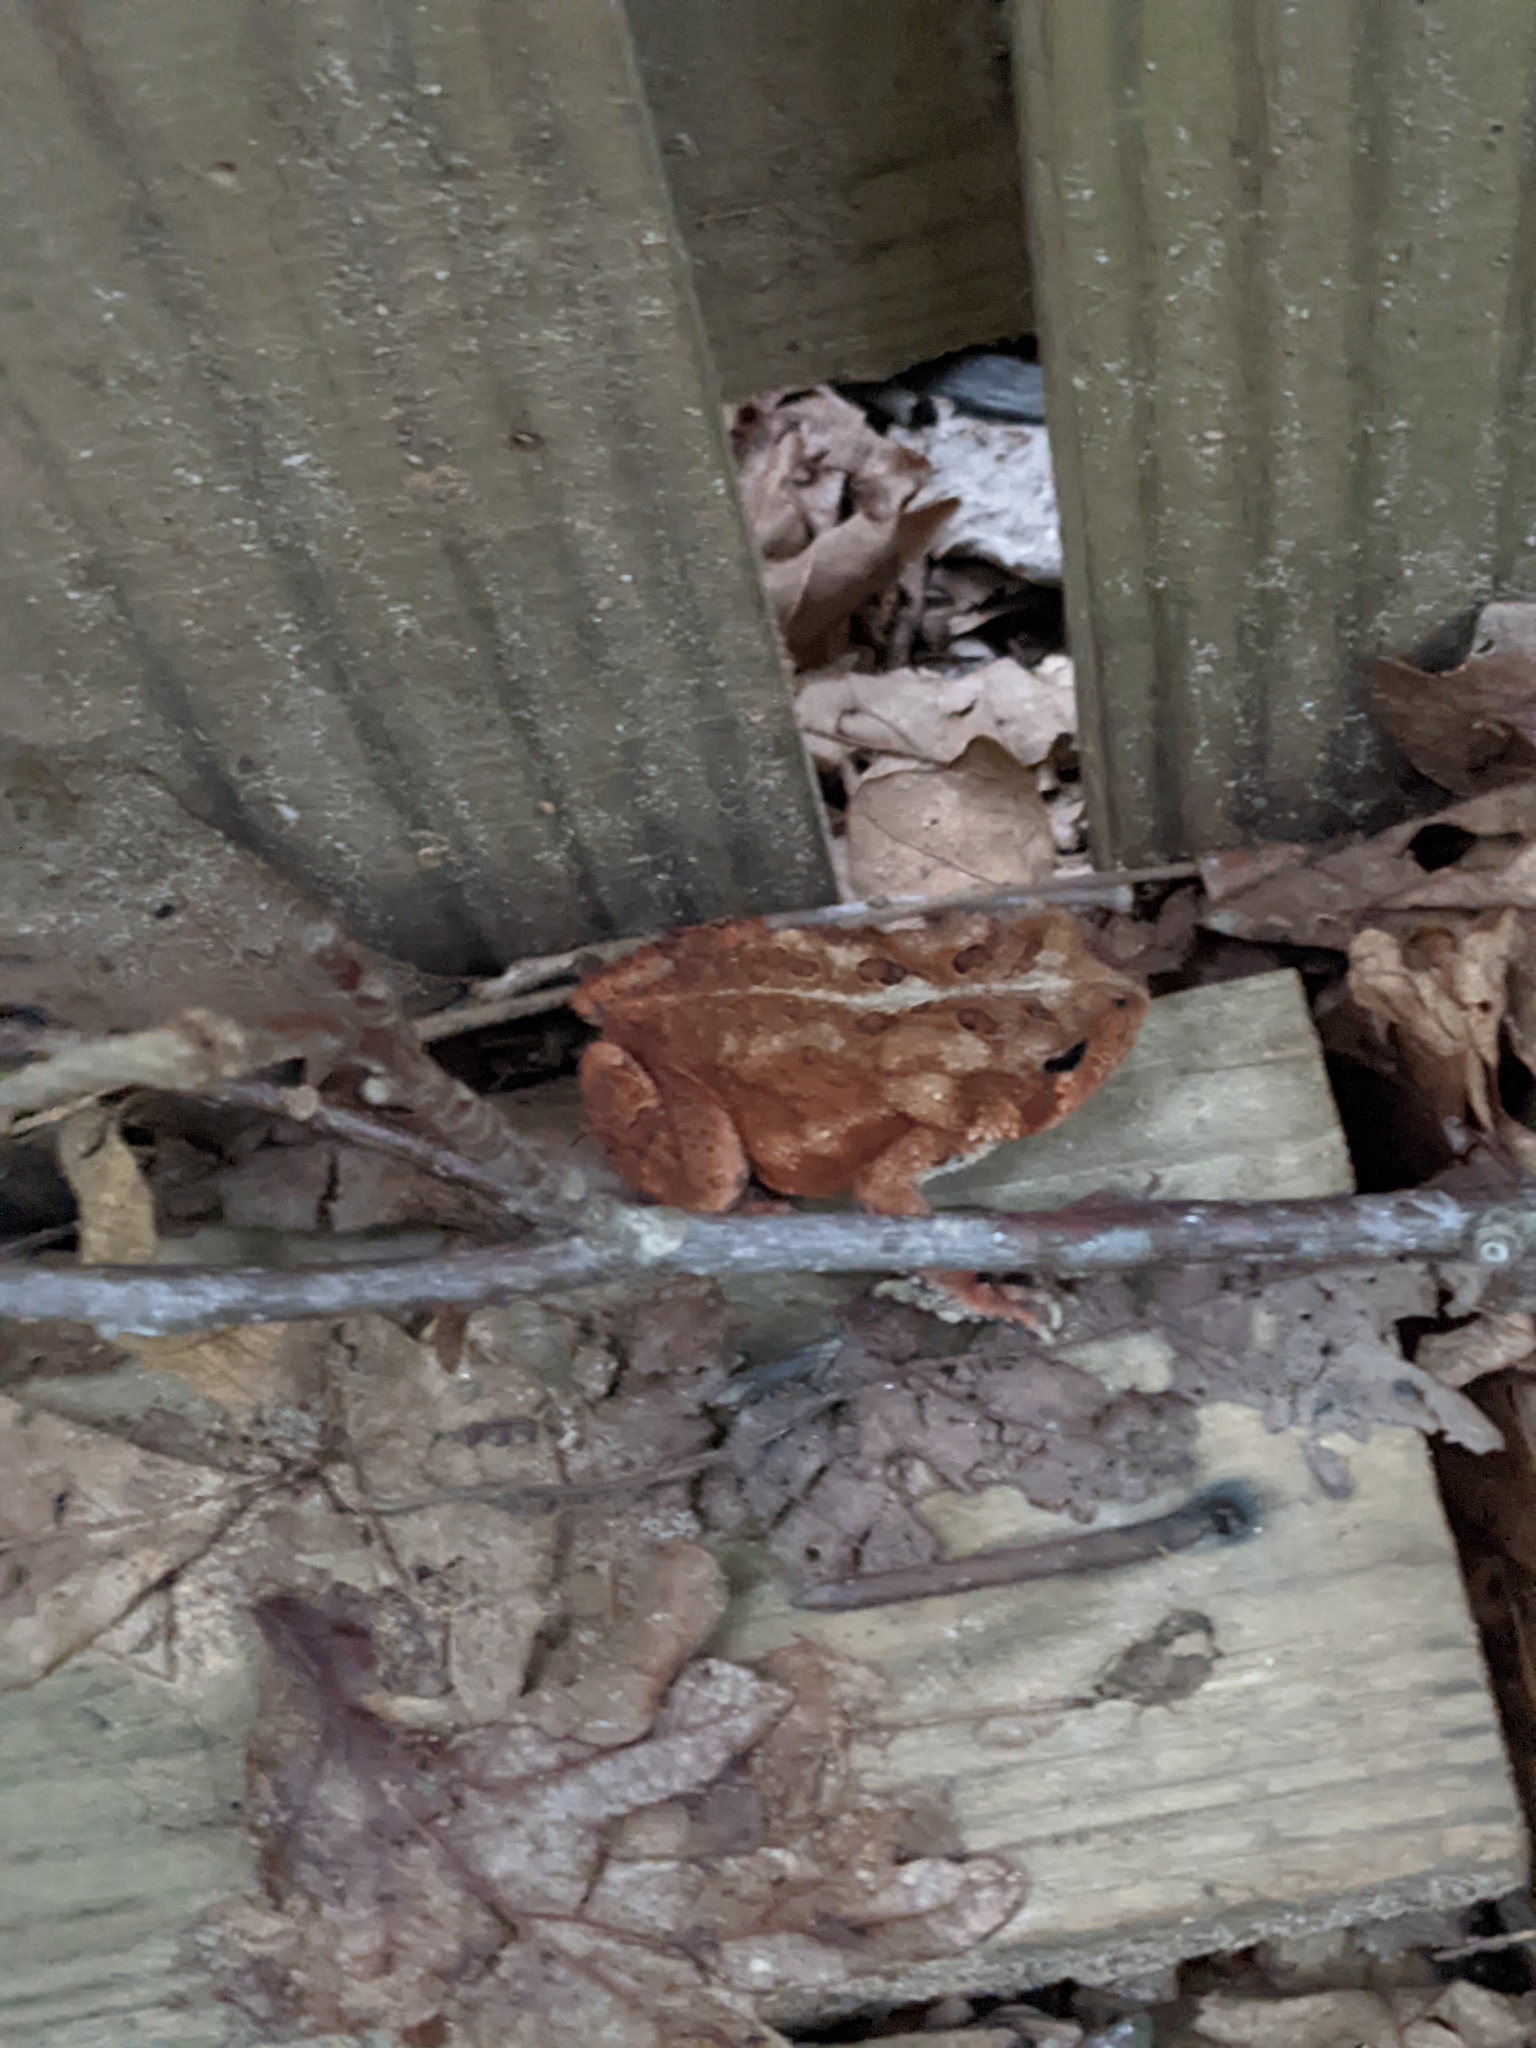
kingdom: Animalia
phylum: Chordata
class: Amphibia
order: Anura
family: Bufonidae
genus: Anaxyrus
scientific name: Anaxyrus americanus
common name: American toad
